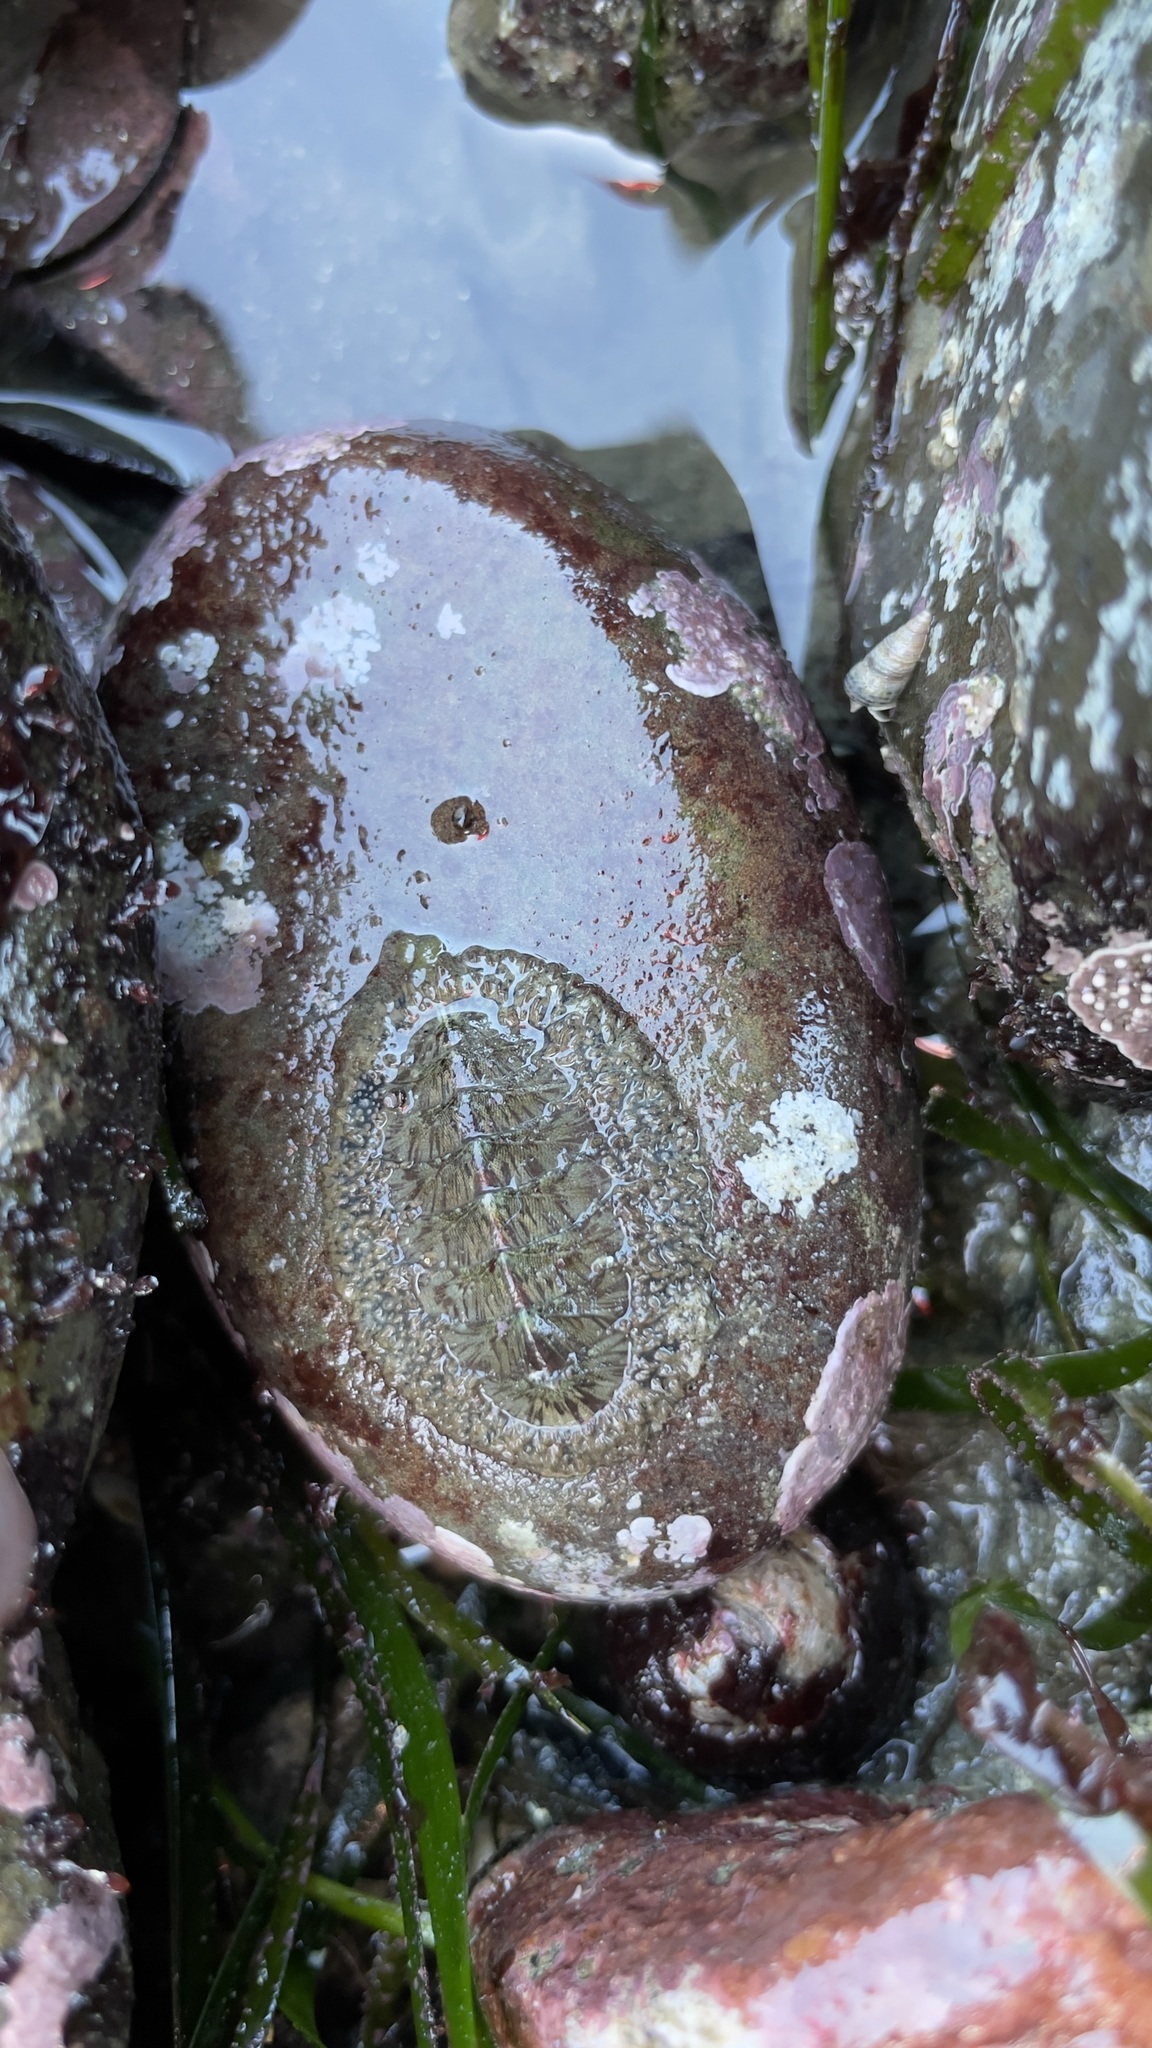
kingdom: Animalia
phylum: Mollusca
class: Polyplacophora
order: Chitonida
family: Mopaliidae
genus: Mopalia
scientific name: Mopalia lignosa
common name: Woody chiton
